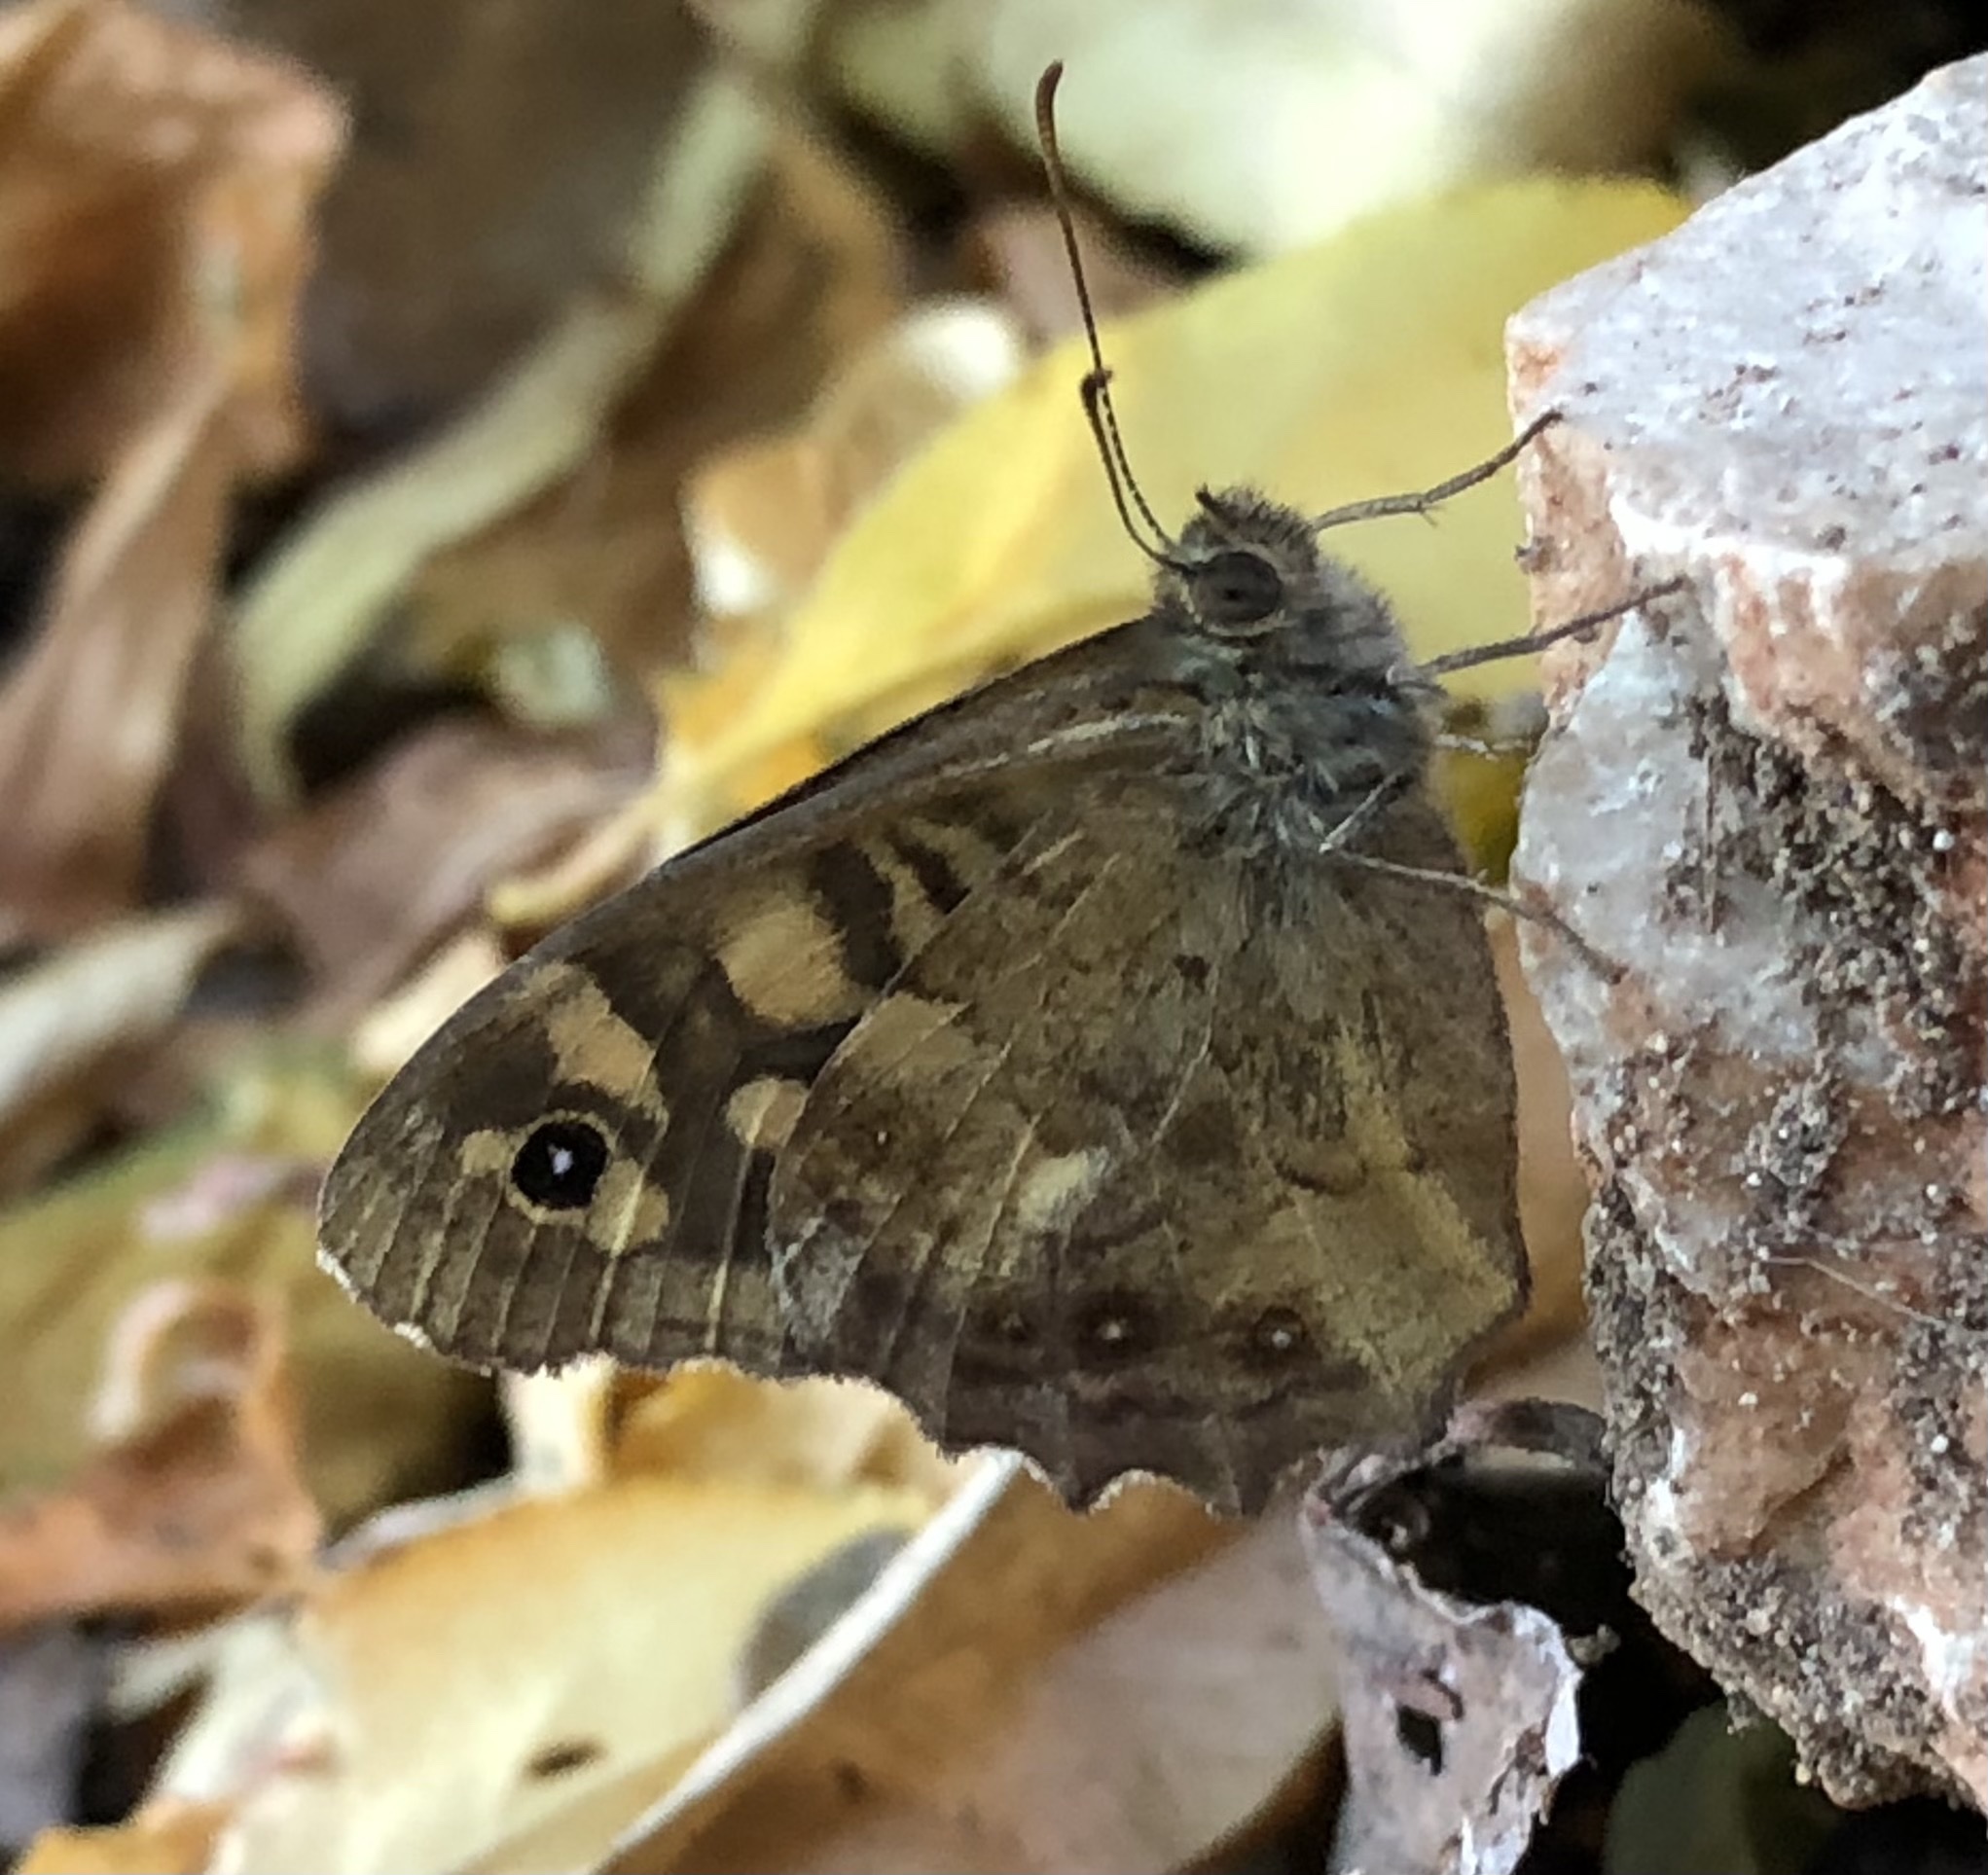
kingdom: Animalia
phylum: Arthropoda
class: Insecta
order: Lepidoptera
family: Nymphalidae
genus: Pararge
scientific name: Pararge aegeria
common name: Speckled wood
